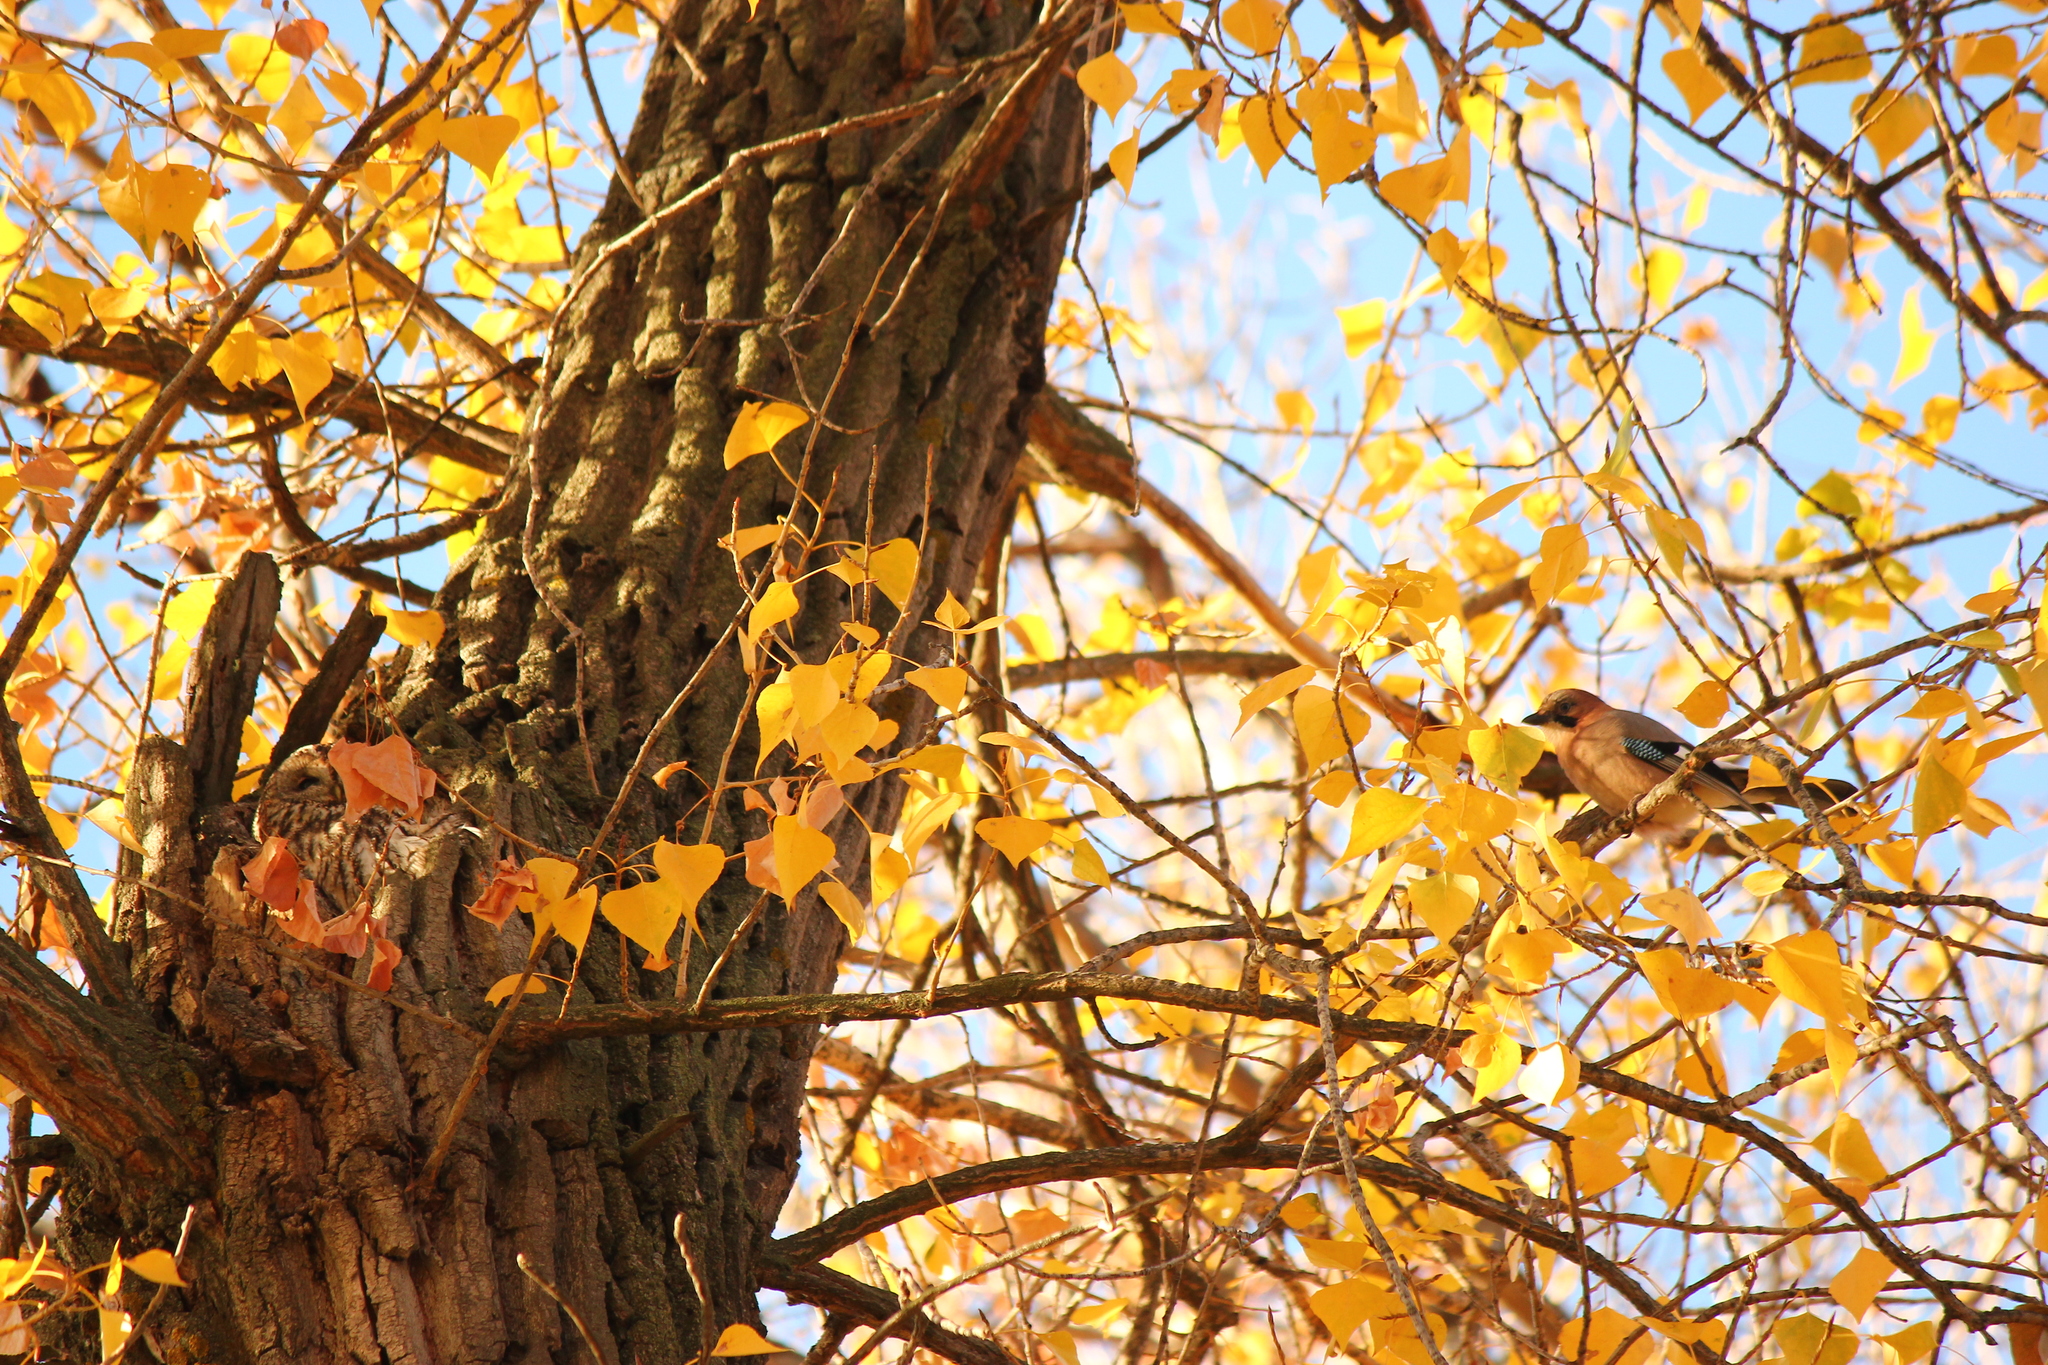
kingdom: Animalia
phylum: Chordata
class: Aves
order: Strigiformes
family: Strigidae
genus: Strix
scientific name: Strix aluco
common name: Tawny owl
